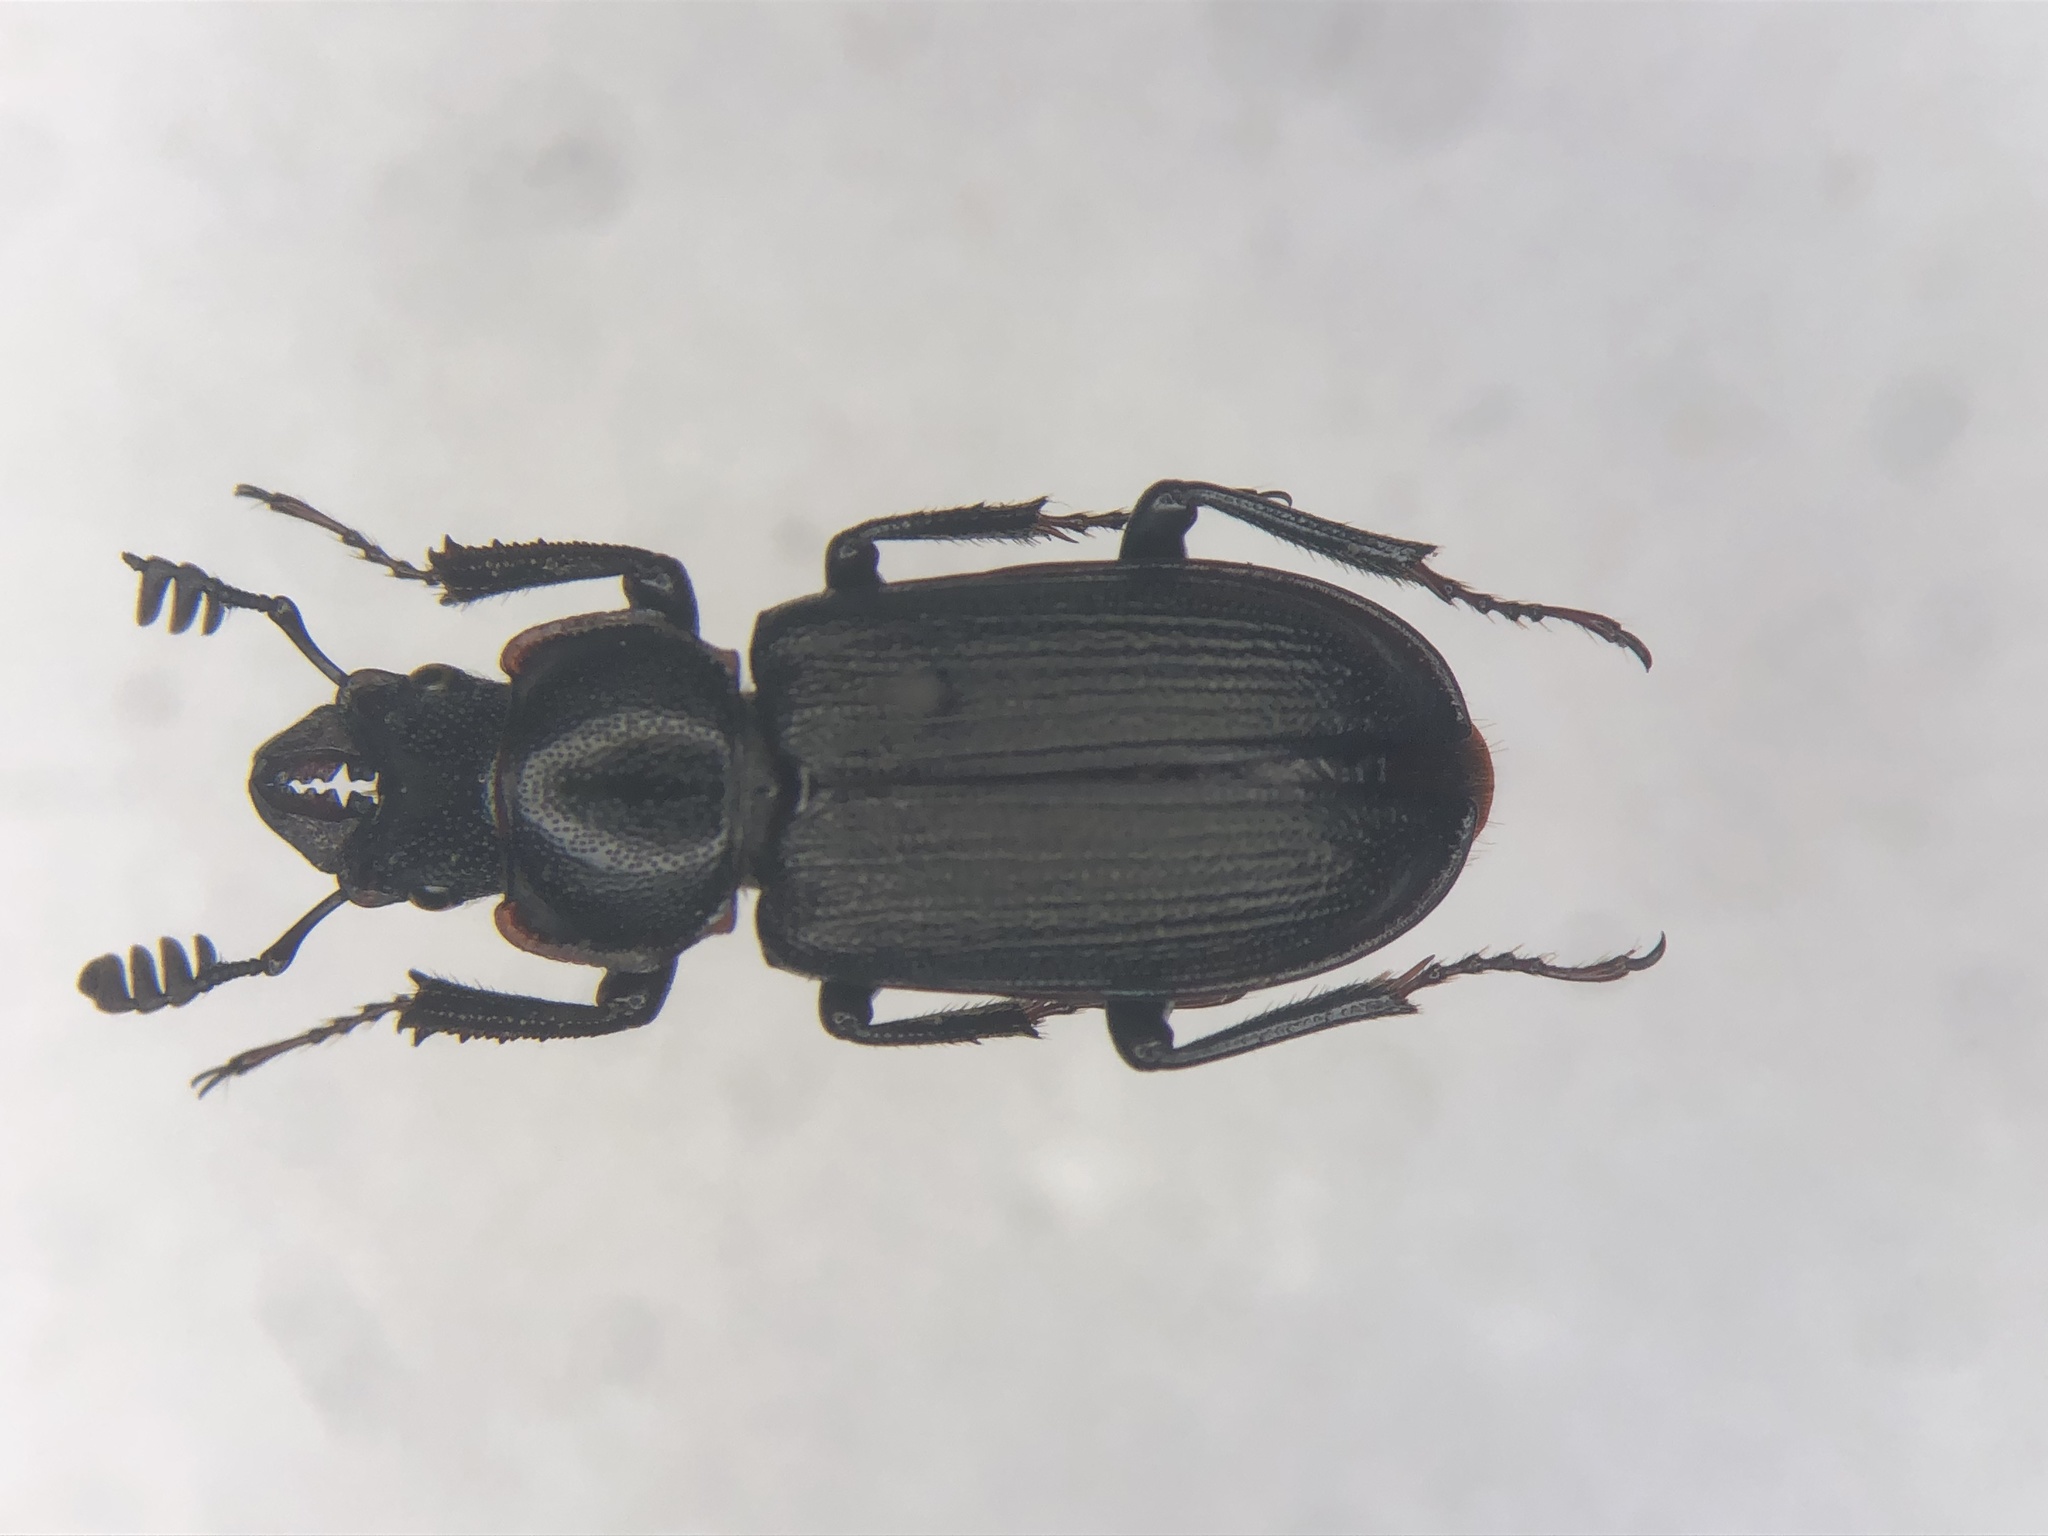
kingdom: Animalia
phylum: Arthropoda
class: Insecta
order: Coleoptera
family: Lucanidae
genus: Platycerus
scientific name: Platycerus depressus
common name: Aspen stag beetle
